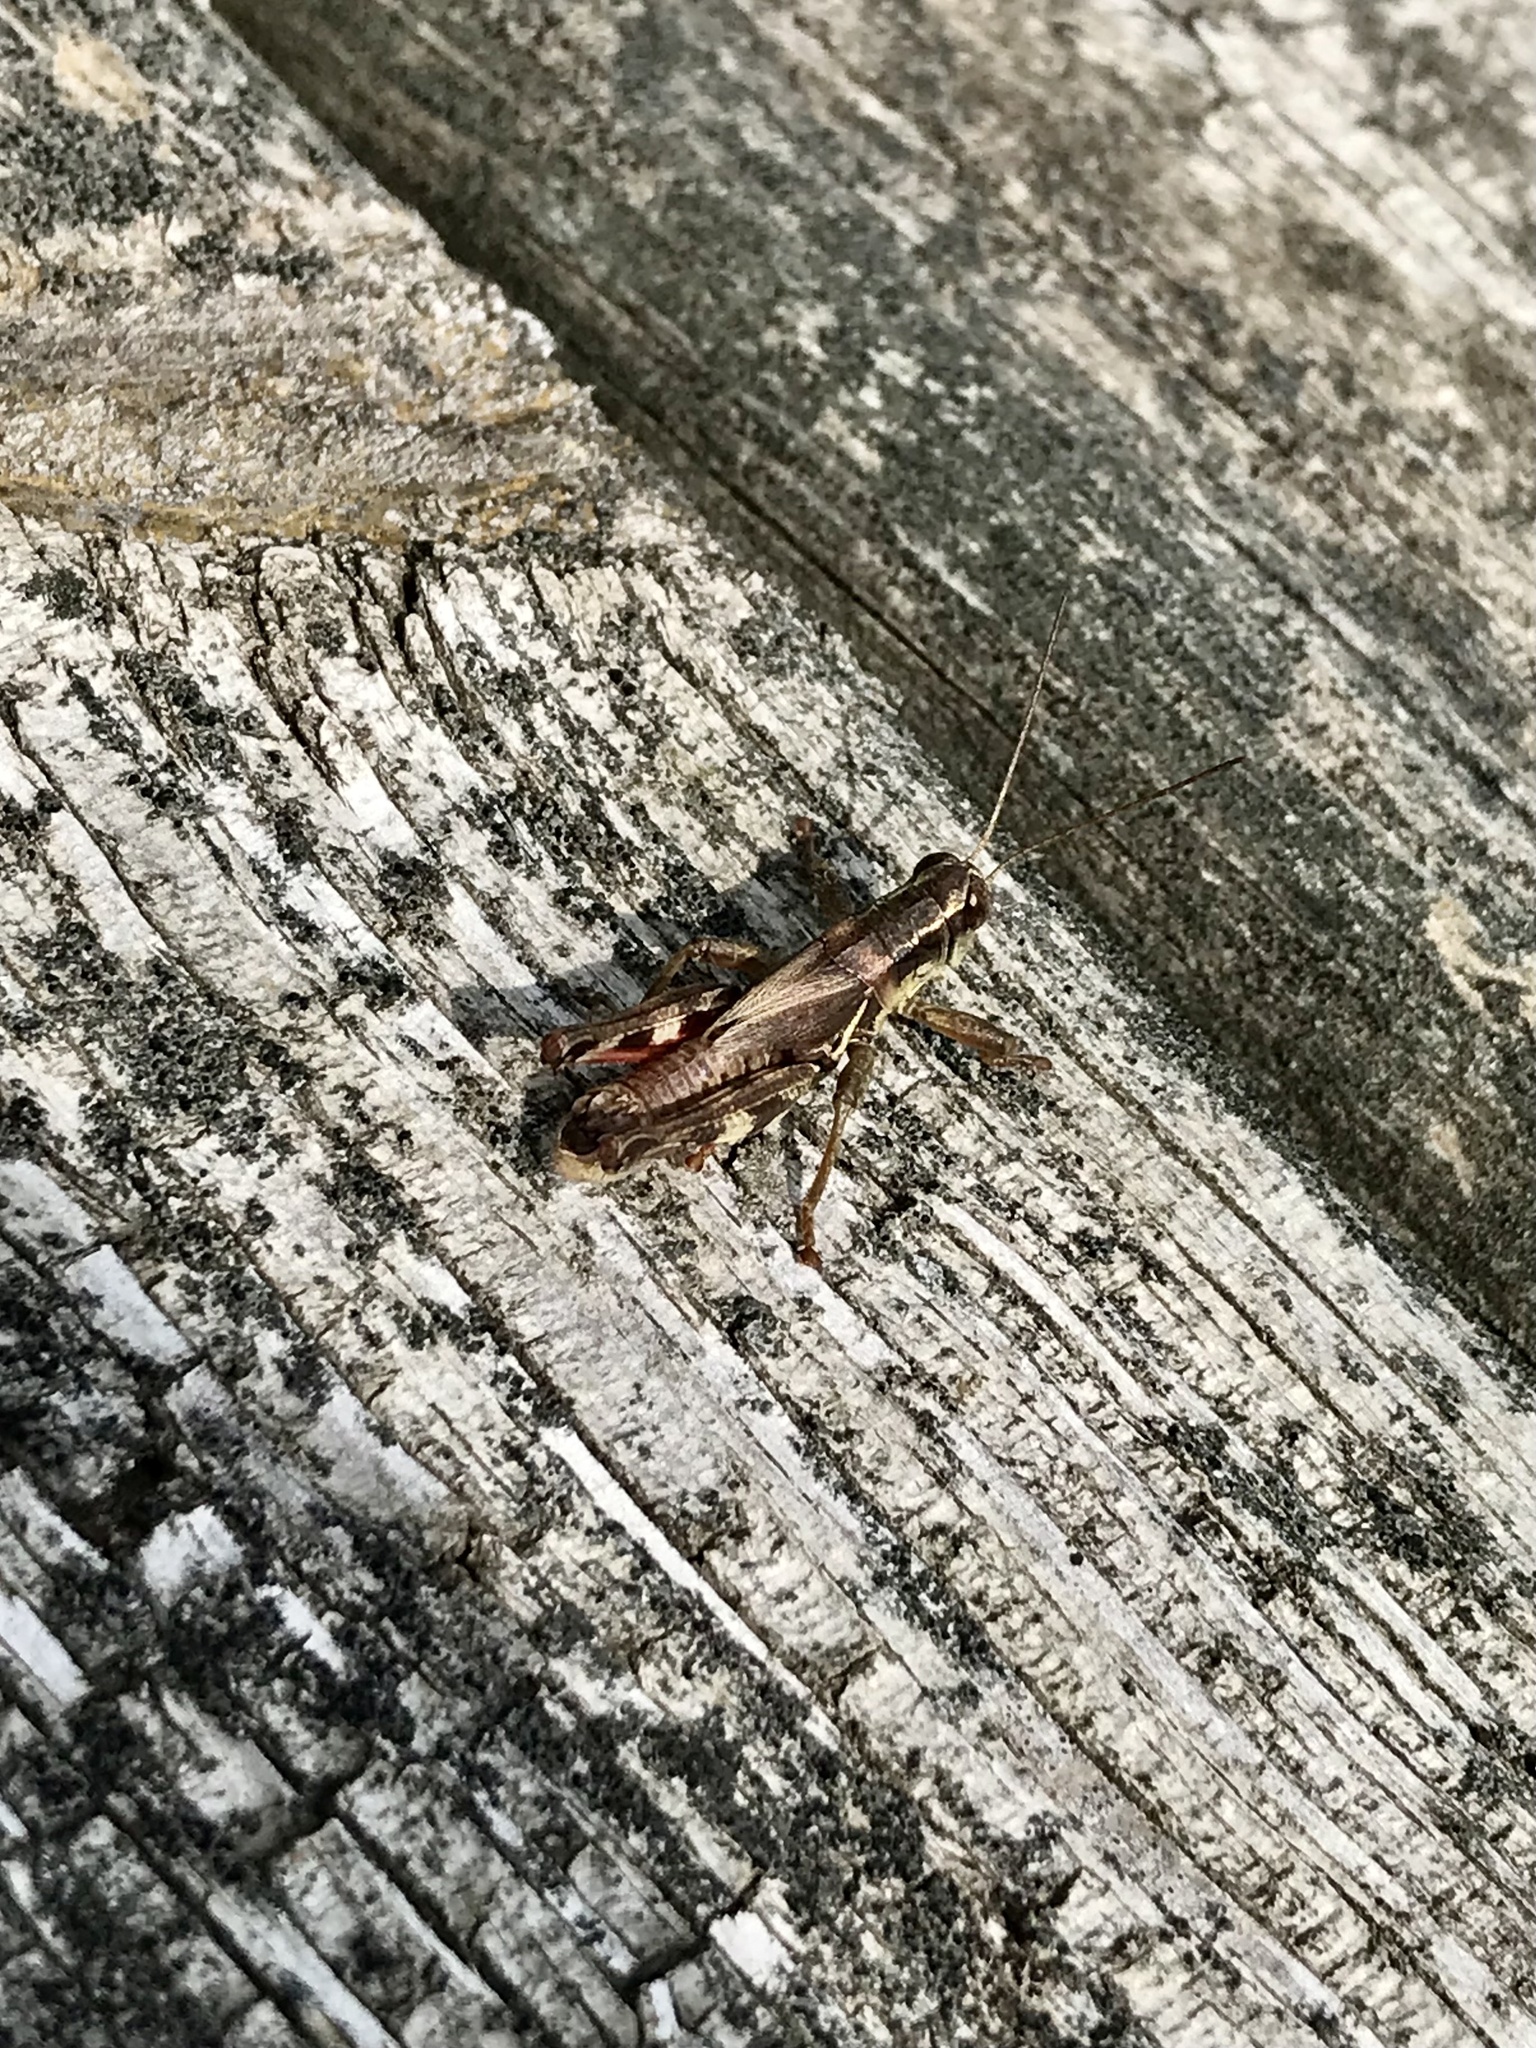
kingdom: Animalia
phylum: Arthropoda
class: Insecta
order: Orthoptera
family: Acrididae
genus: Melanoplus
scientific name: Melanoplus walshii
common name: Walsh's locust
